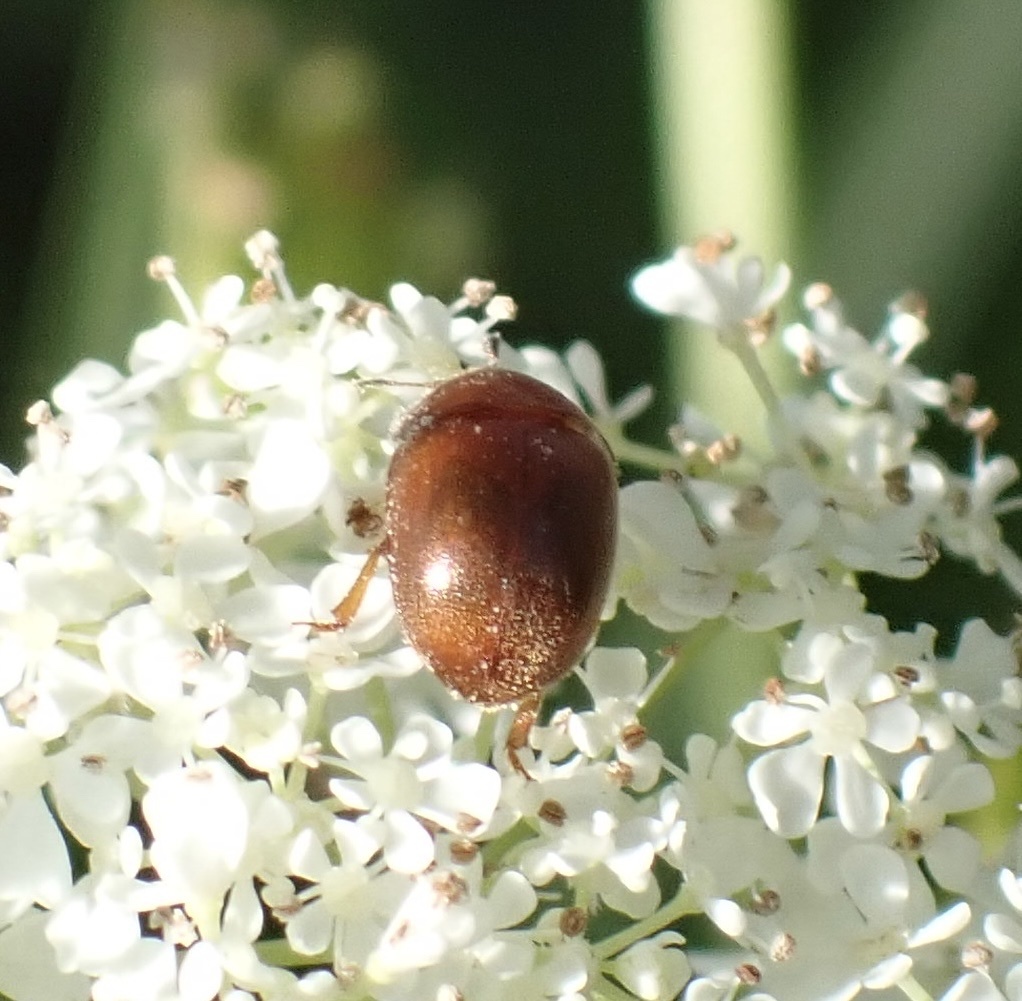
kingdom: Animalia
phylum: Arthropoda
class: Insecta
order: Coleoptera
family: Nitidulidae
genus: Cychramus
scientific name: Cychramus luteus
